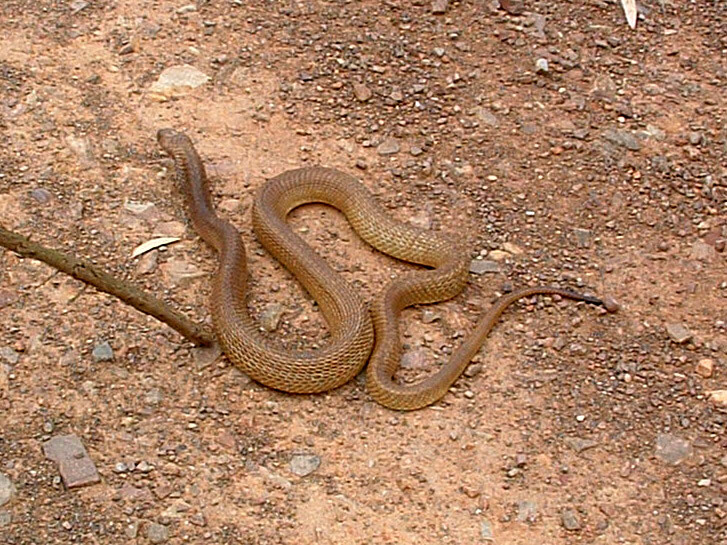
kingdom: Animalia
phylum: Chordata
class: Squamata
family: Elapidae
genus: Naja
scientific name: Naja nivea
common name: Cape cobra
